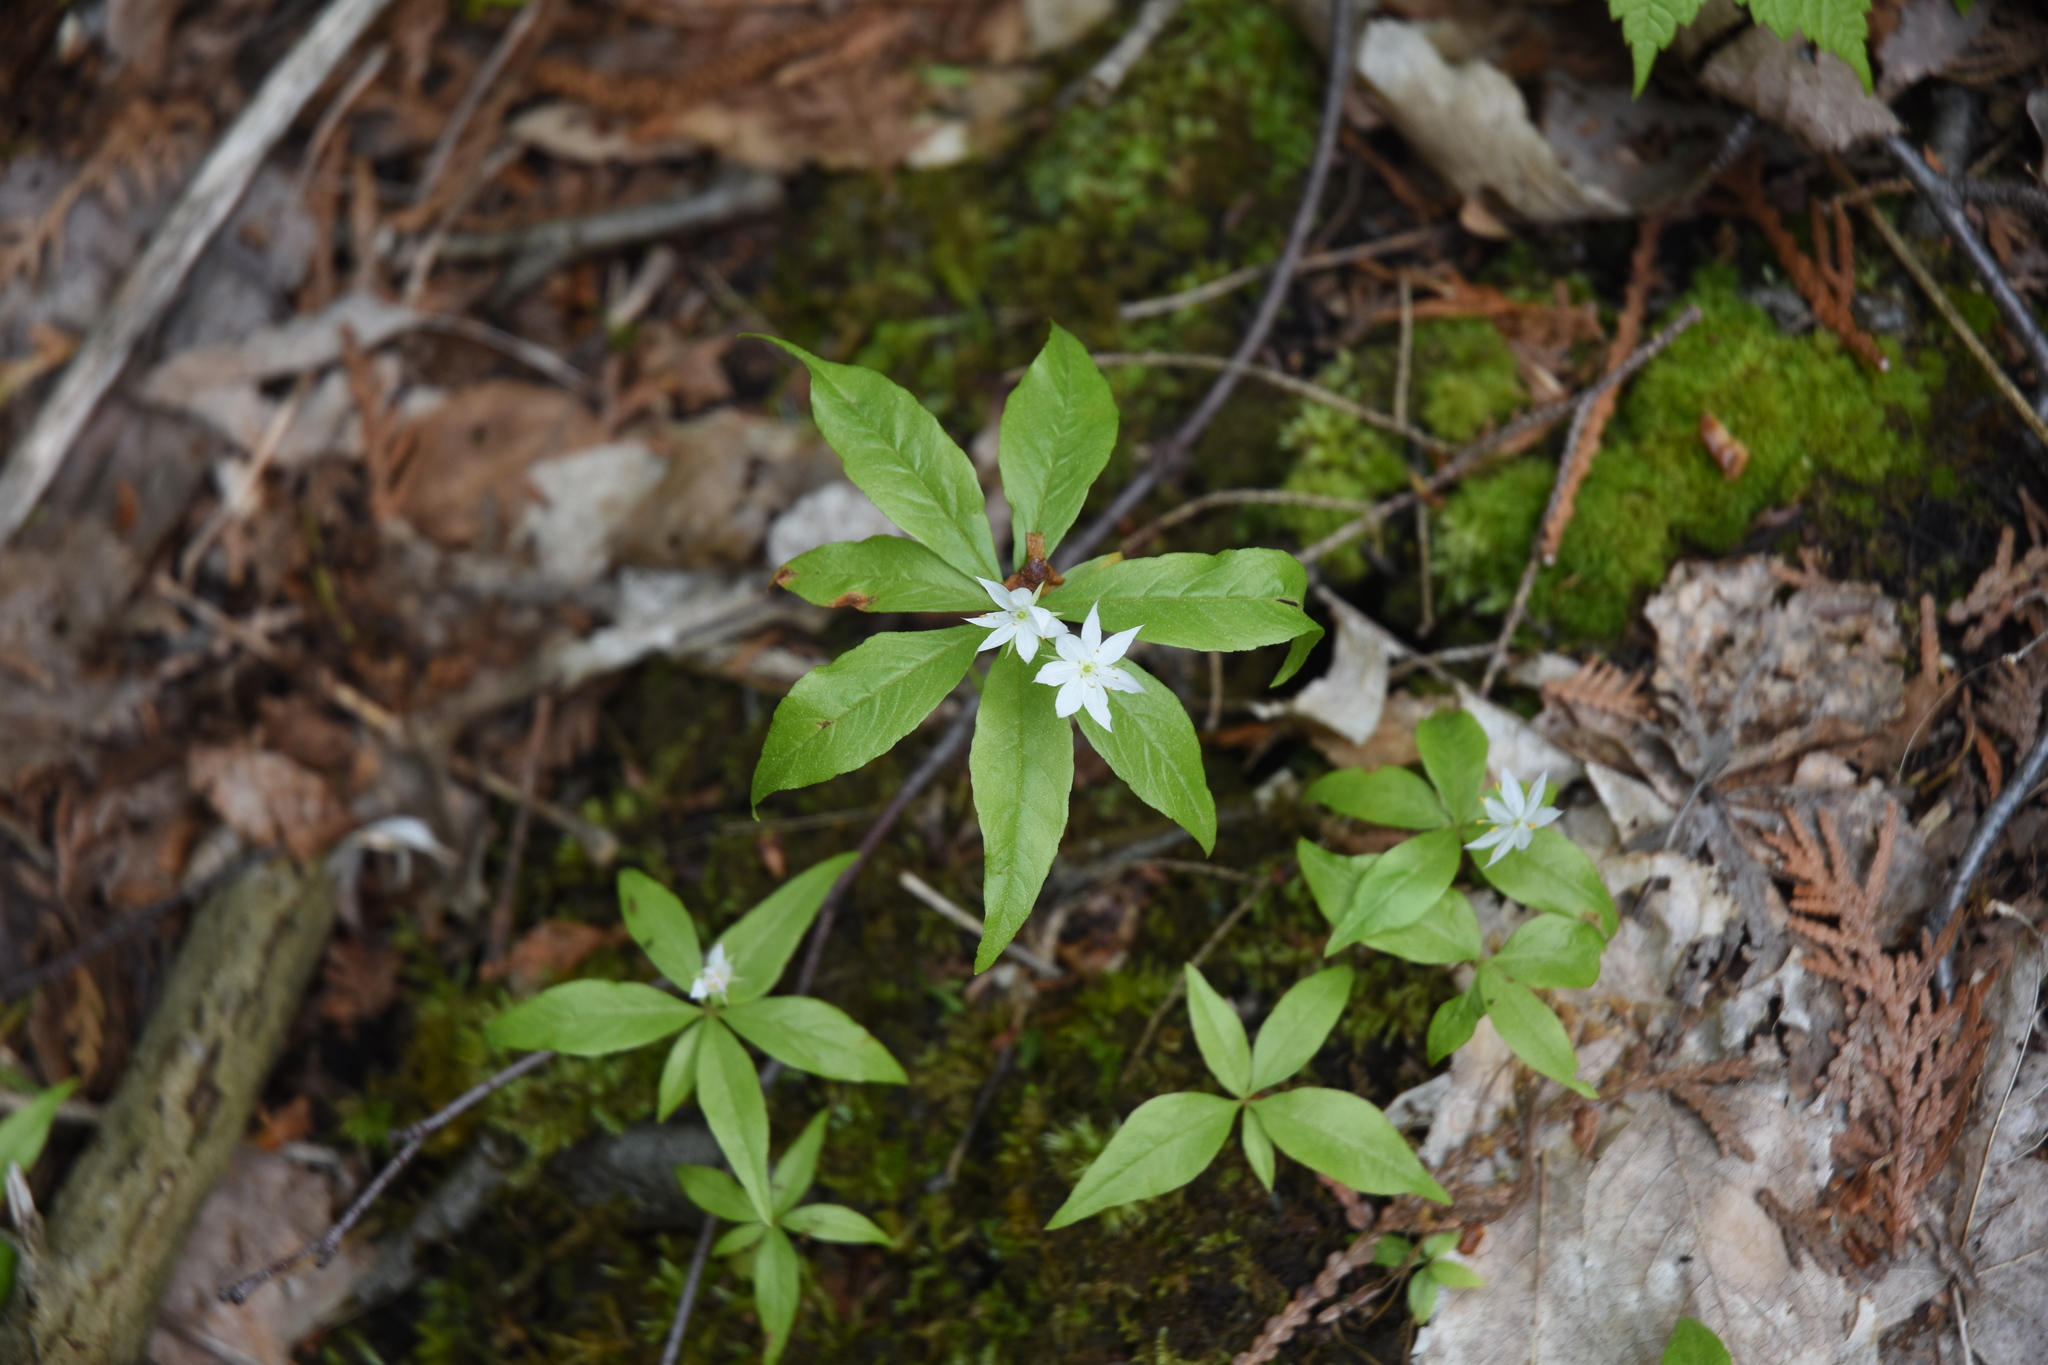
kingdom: Plantae
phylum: Tracheophyta
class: Magnoliopsida
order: Ericales
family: Primulaceae
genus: Lysimachia
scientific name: Lysimachia borealis
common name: American starflower
